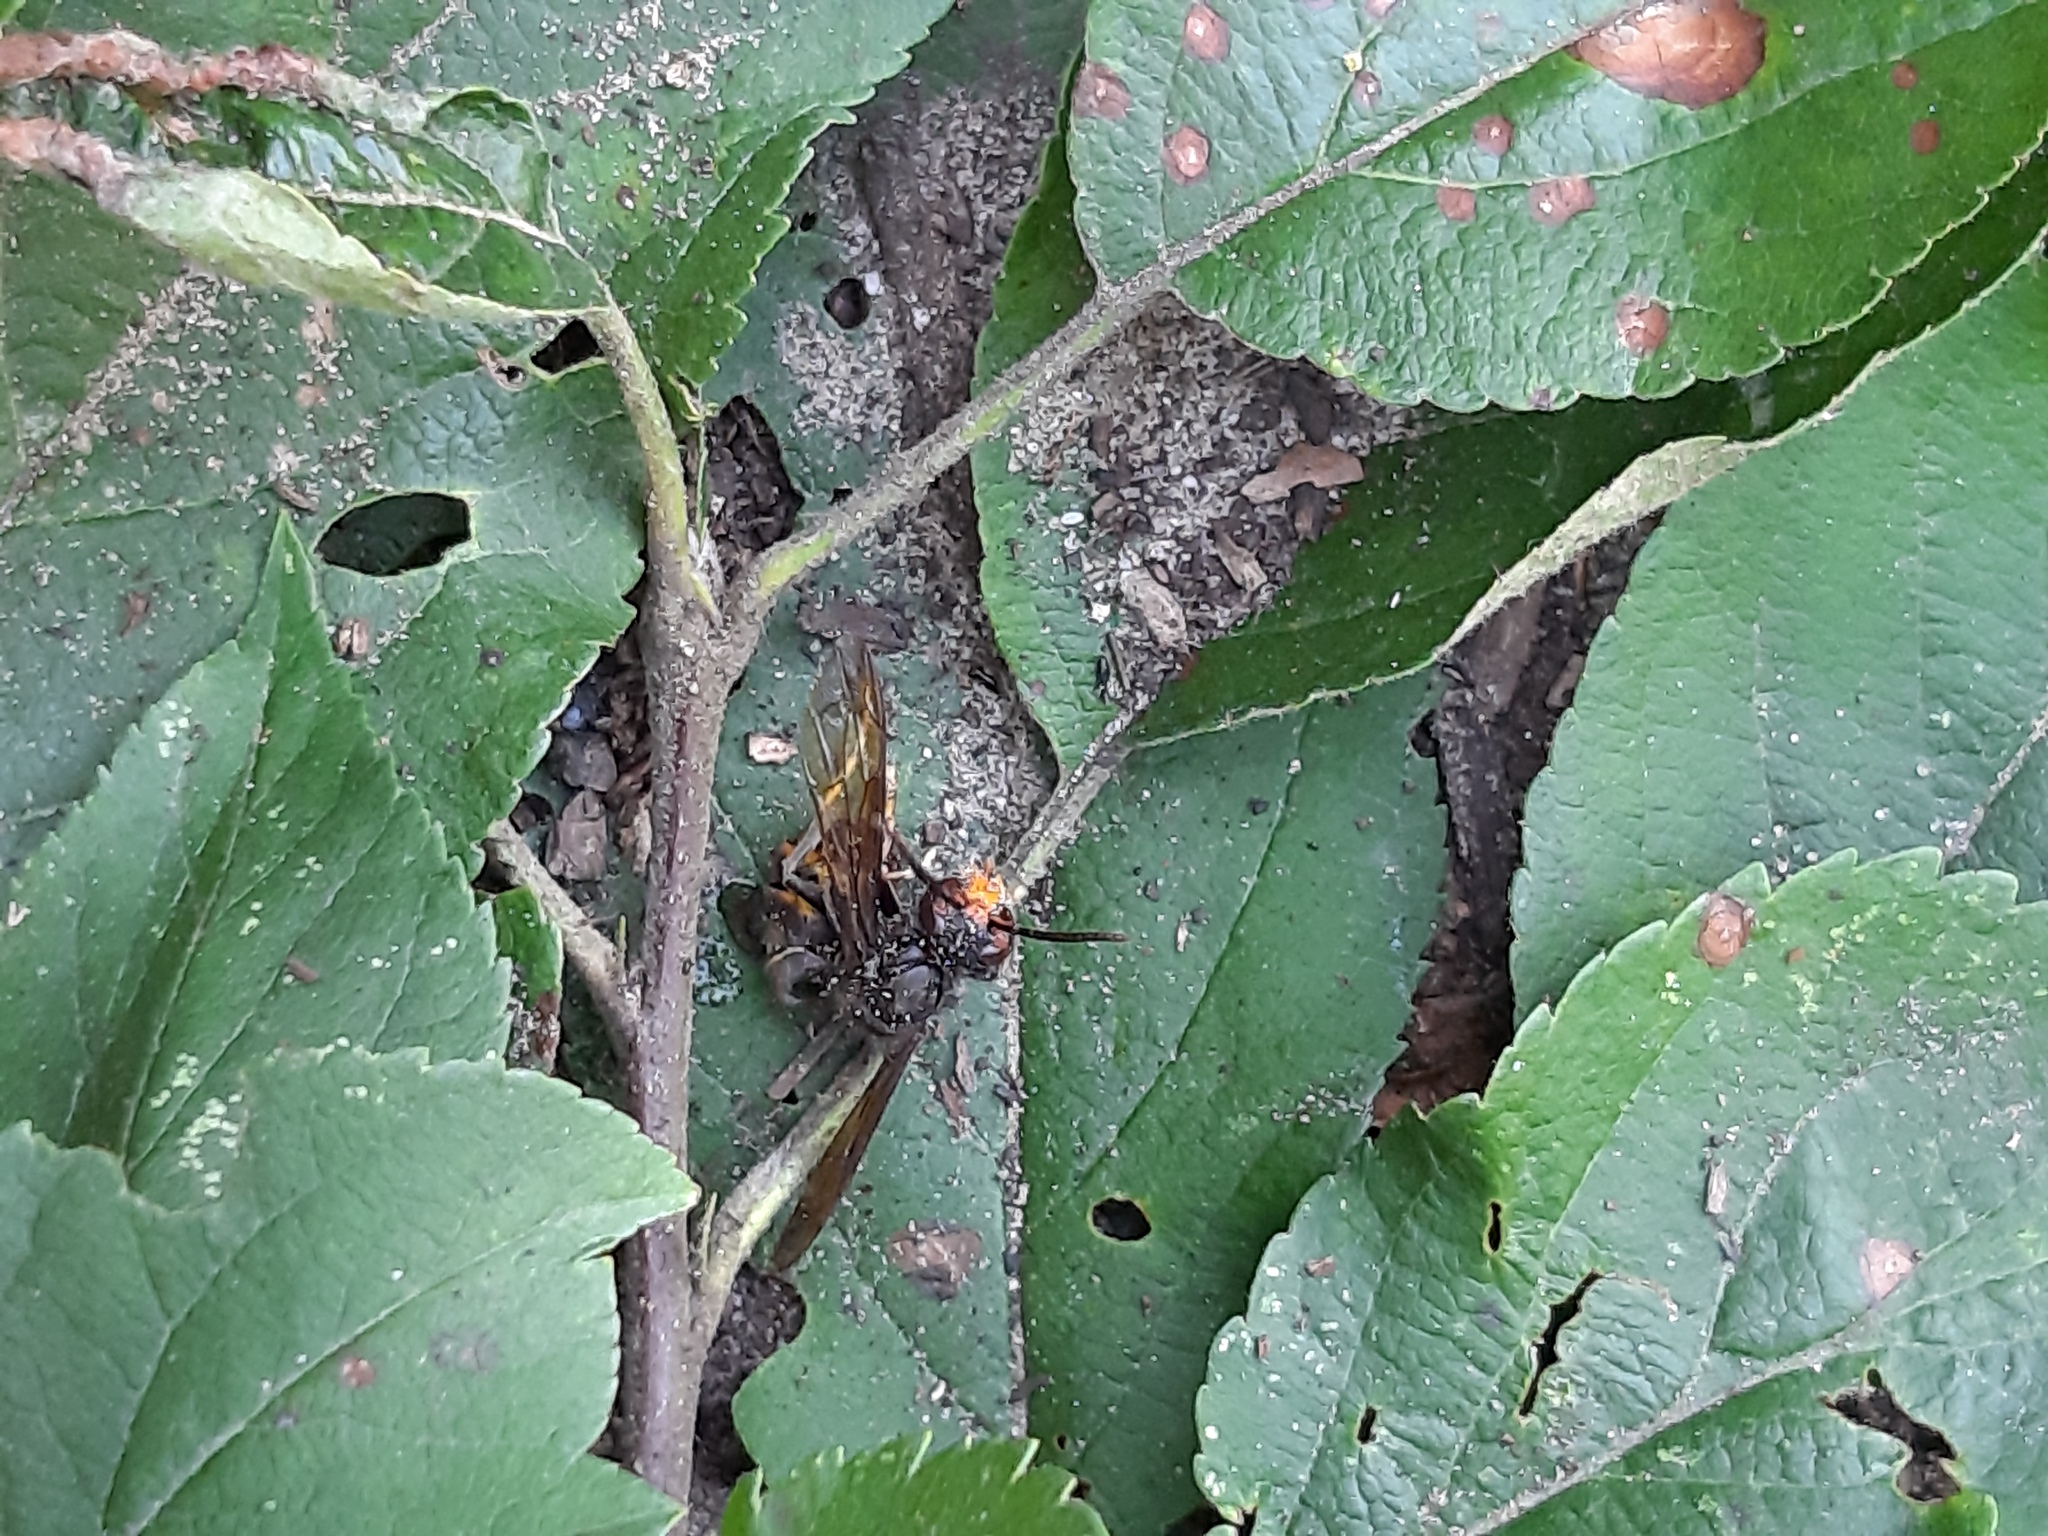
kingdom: Animalia
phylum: Arthropoda
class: Insecta
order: Hymenoptera
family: Vespidae
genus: Vespa
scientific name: Vespa velutina
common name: Asian hornet
